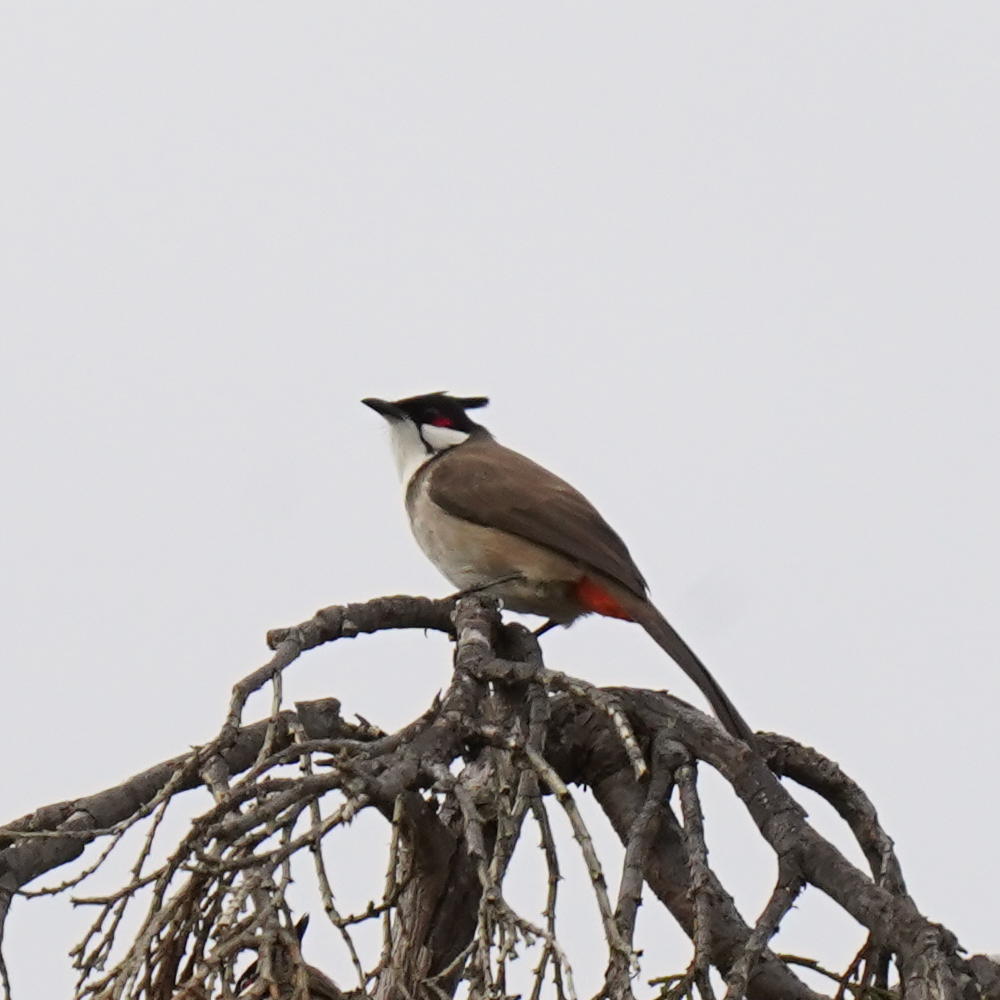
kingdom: Animalia
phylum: Chordata
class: Aves
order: Passeriformes
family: Pycnonotidae
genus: Pycnonotus
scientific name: Pycnonotus jocosus
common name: Red-whiskered bulbul
